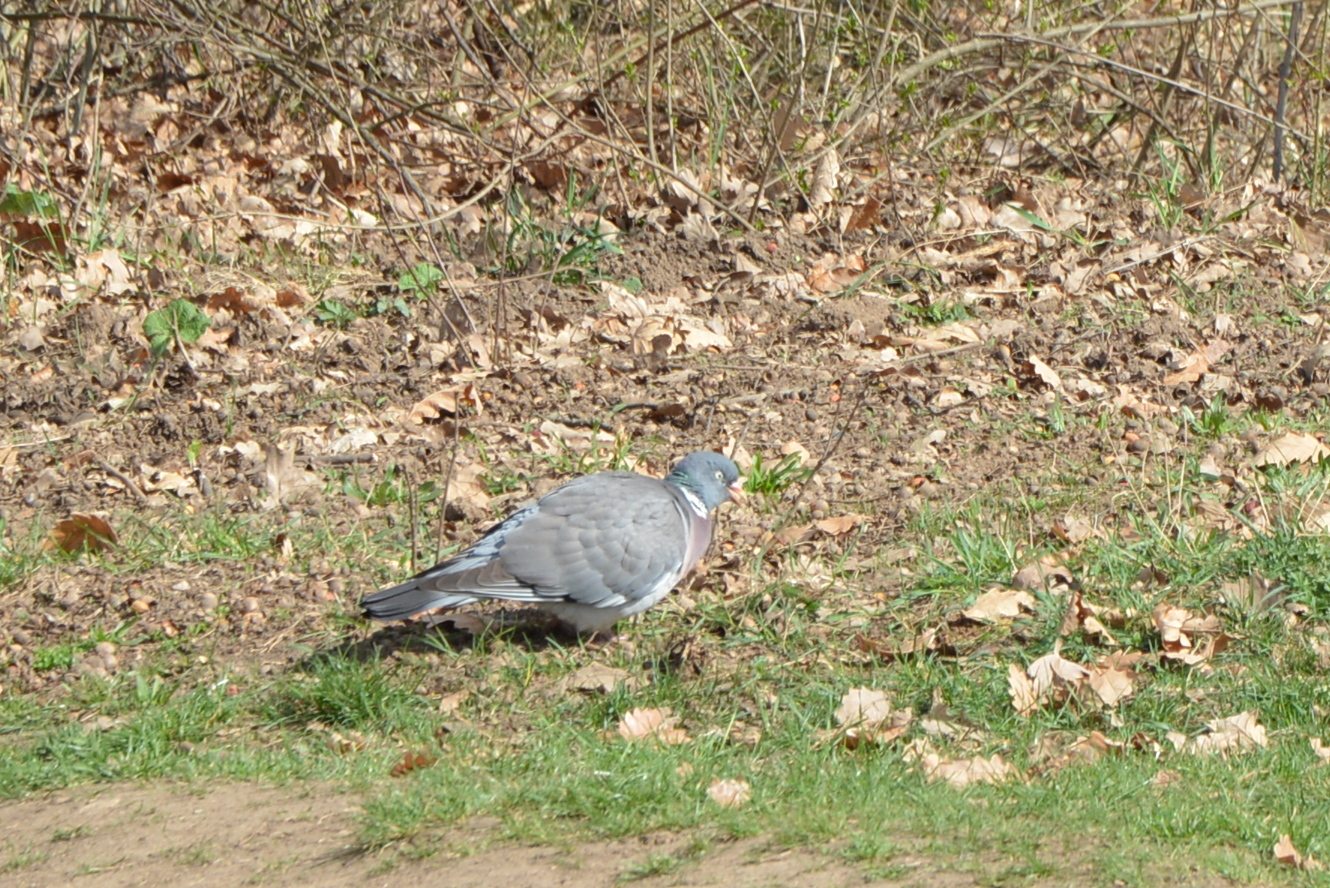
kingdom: Animalia
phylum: Chordata
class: Aves
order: Columbiformes
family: Columbidae
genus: Columba
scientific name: Columba palumbus
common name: Common wood pigeon
